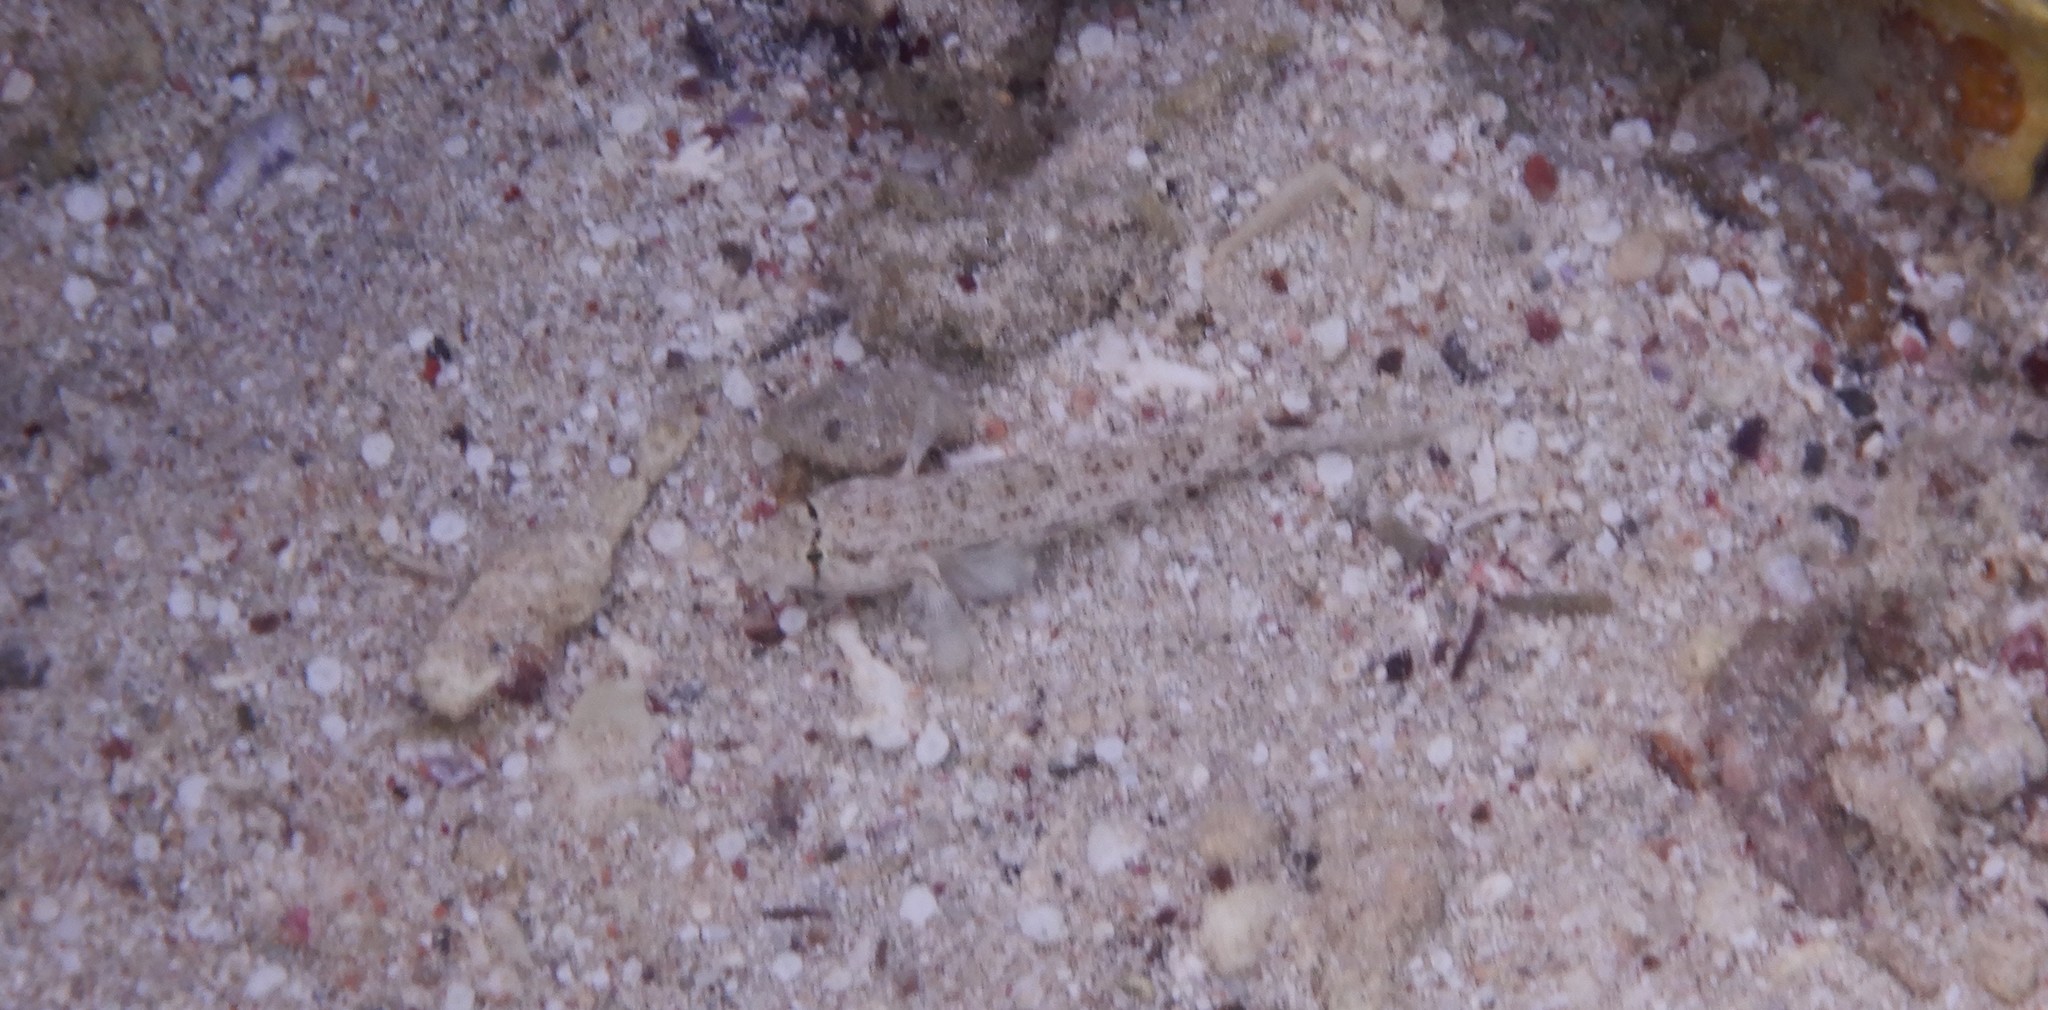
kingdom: Animalia
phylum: Chordata
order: Perciformes
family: Gobiidae
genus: Gnatholepis
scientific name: Gnatholepis anjerensis
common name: Anjer eye-bar goby
